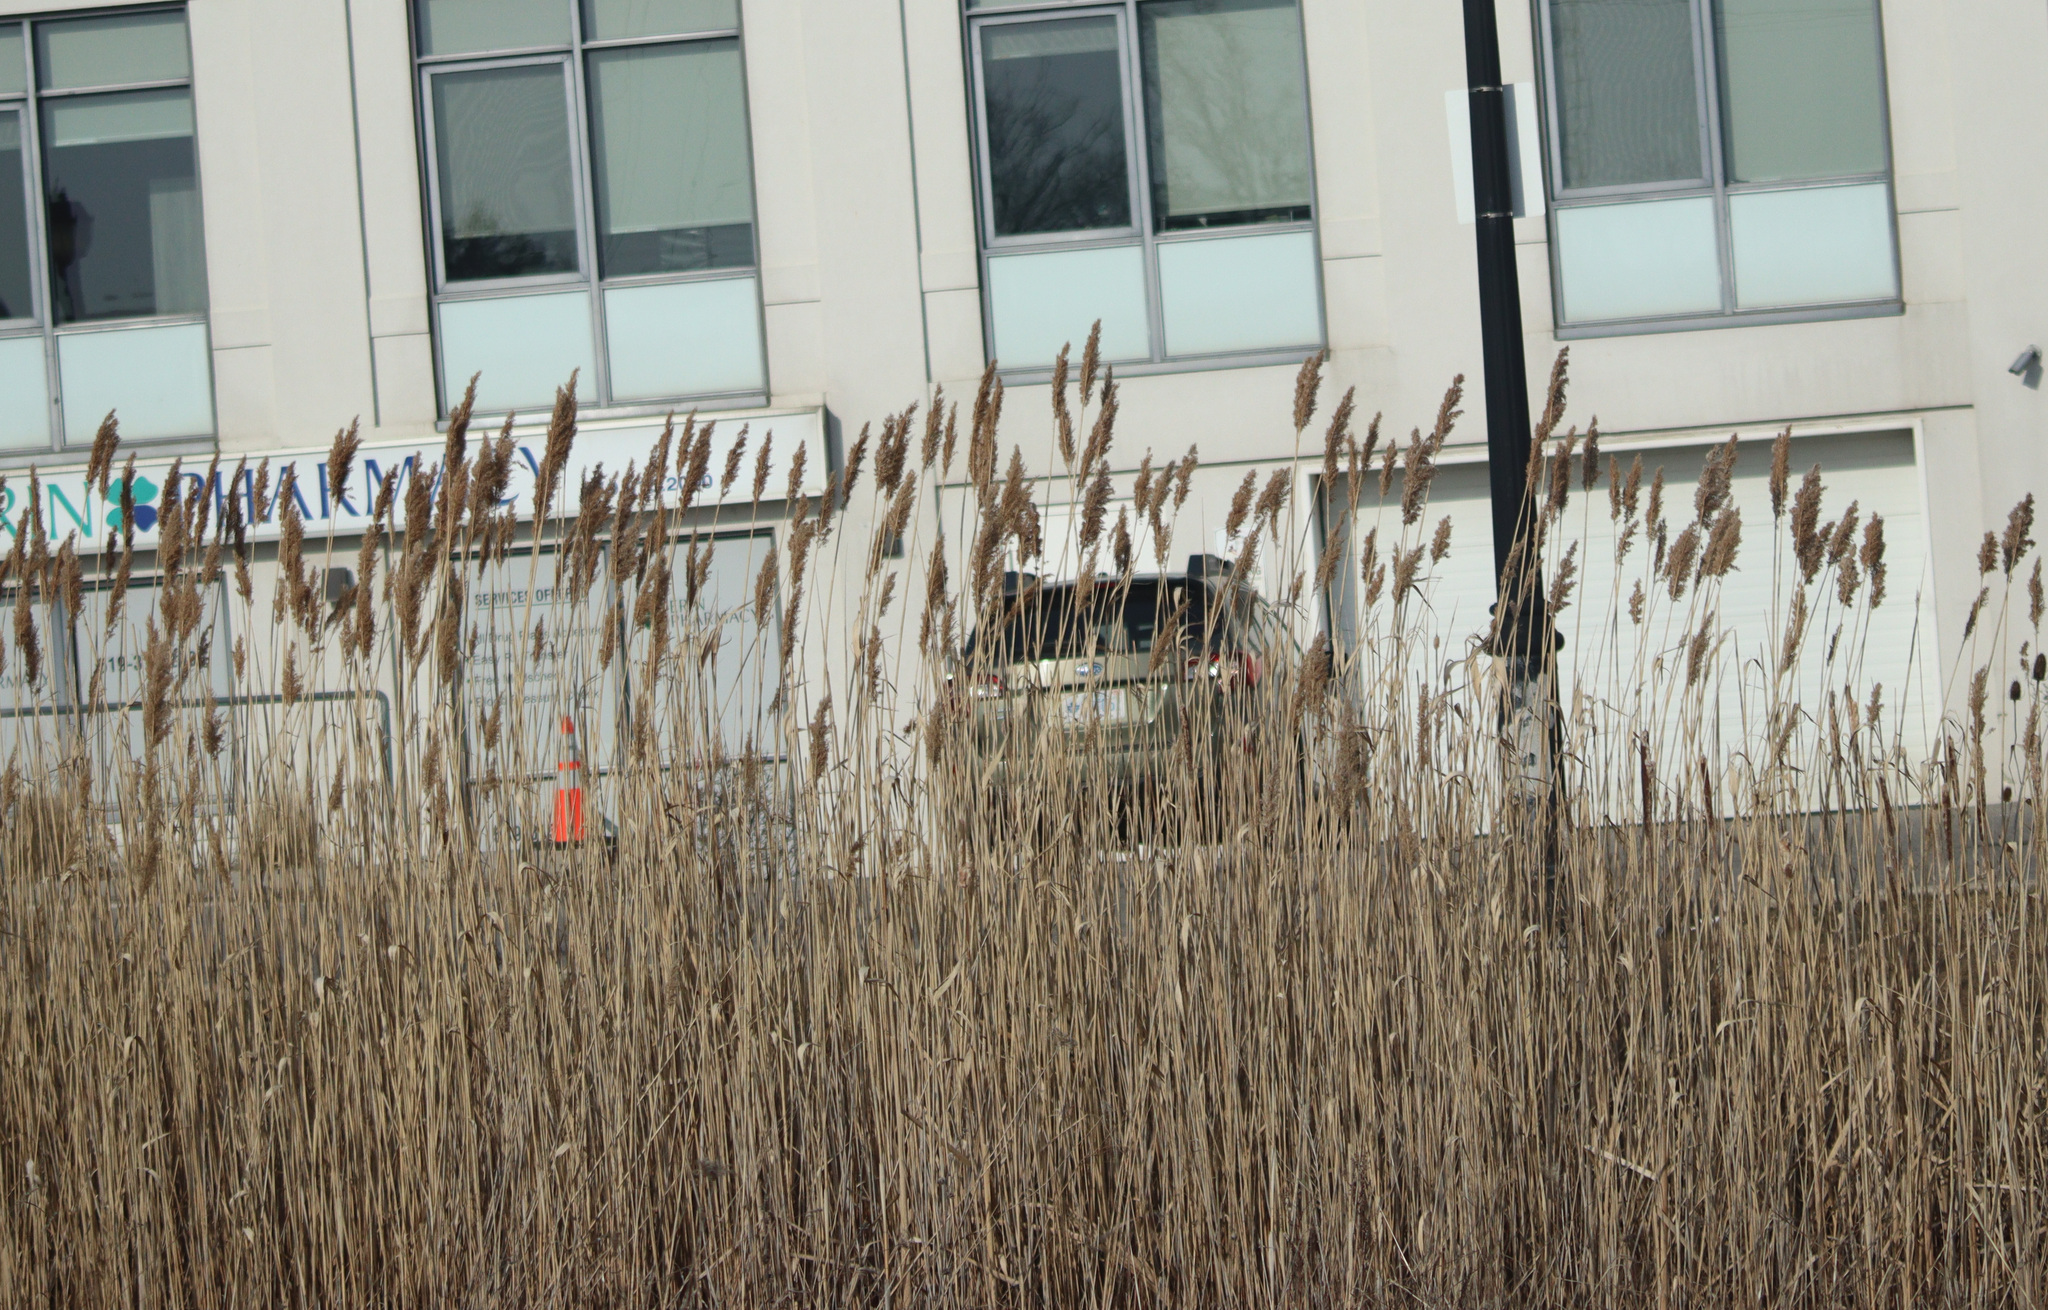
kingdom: Plantae
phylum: Tracheophyta
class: Liliopsida
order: Poales
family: Poaceae
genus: Phragmites
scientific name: Phragmites australis
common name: Common reed
